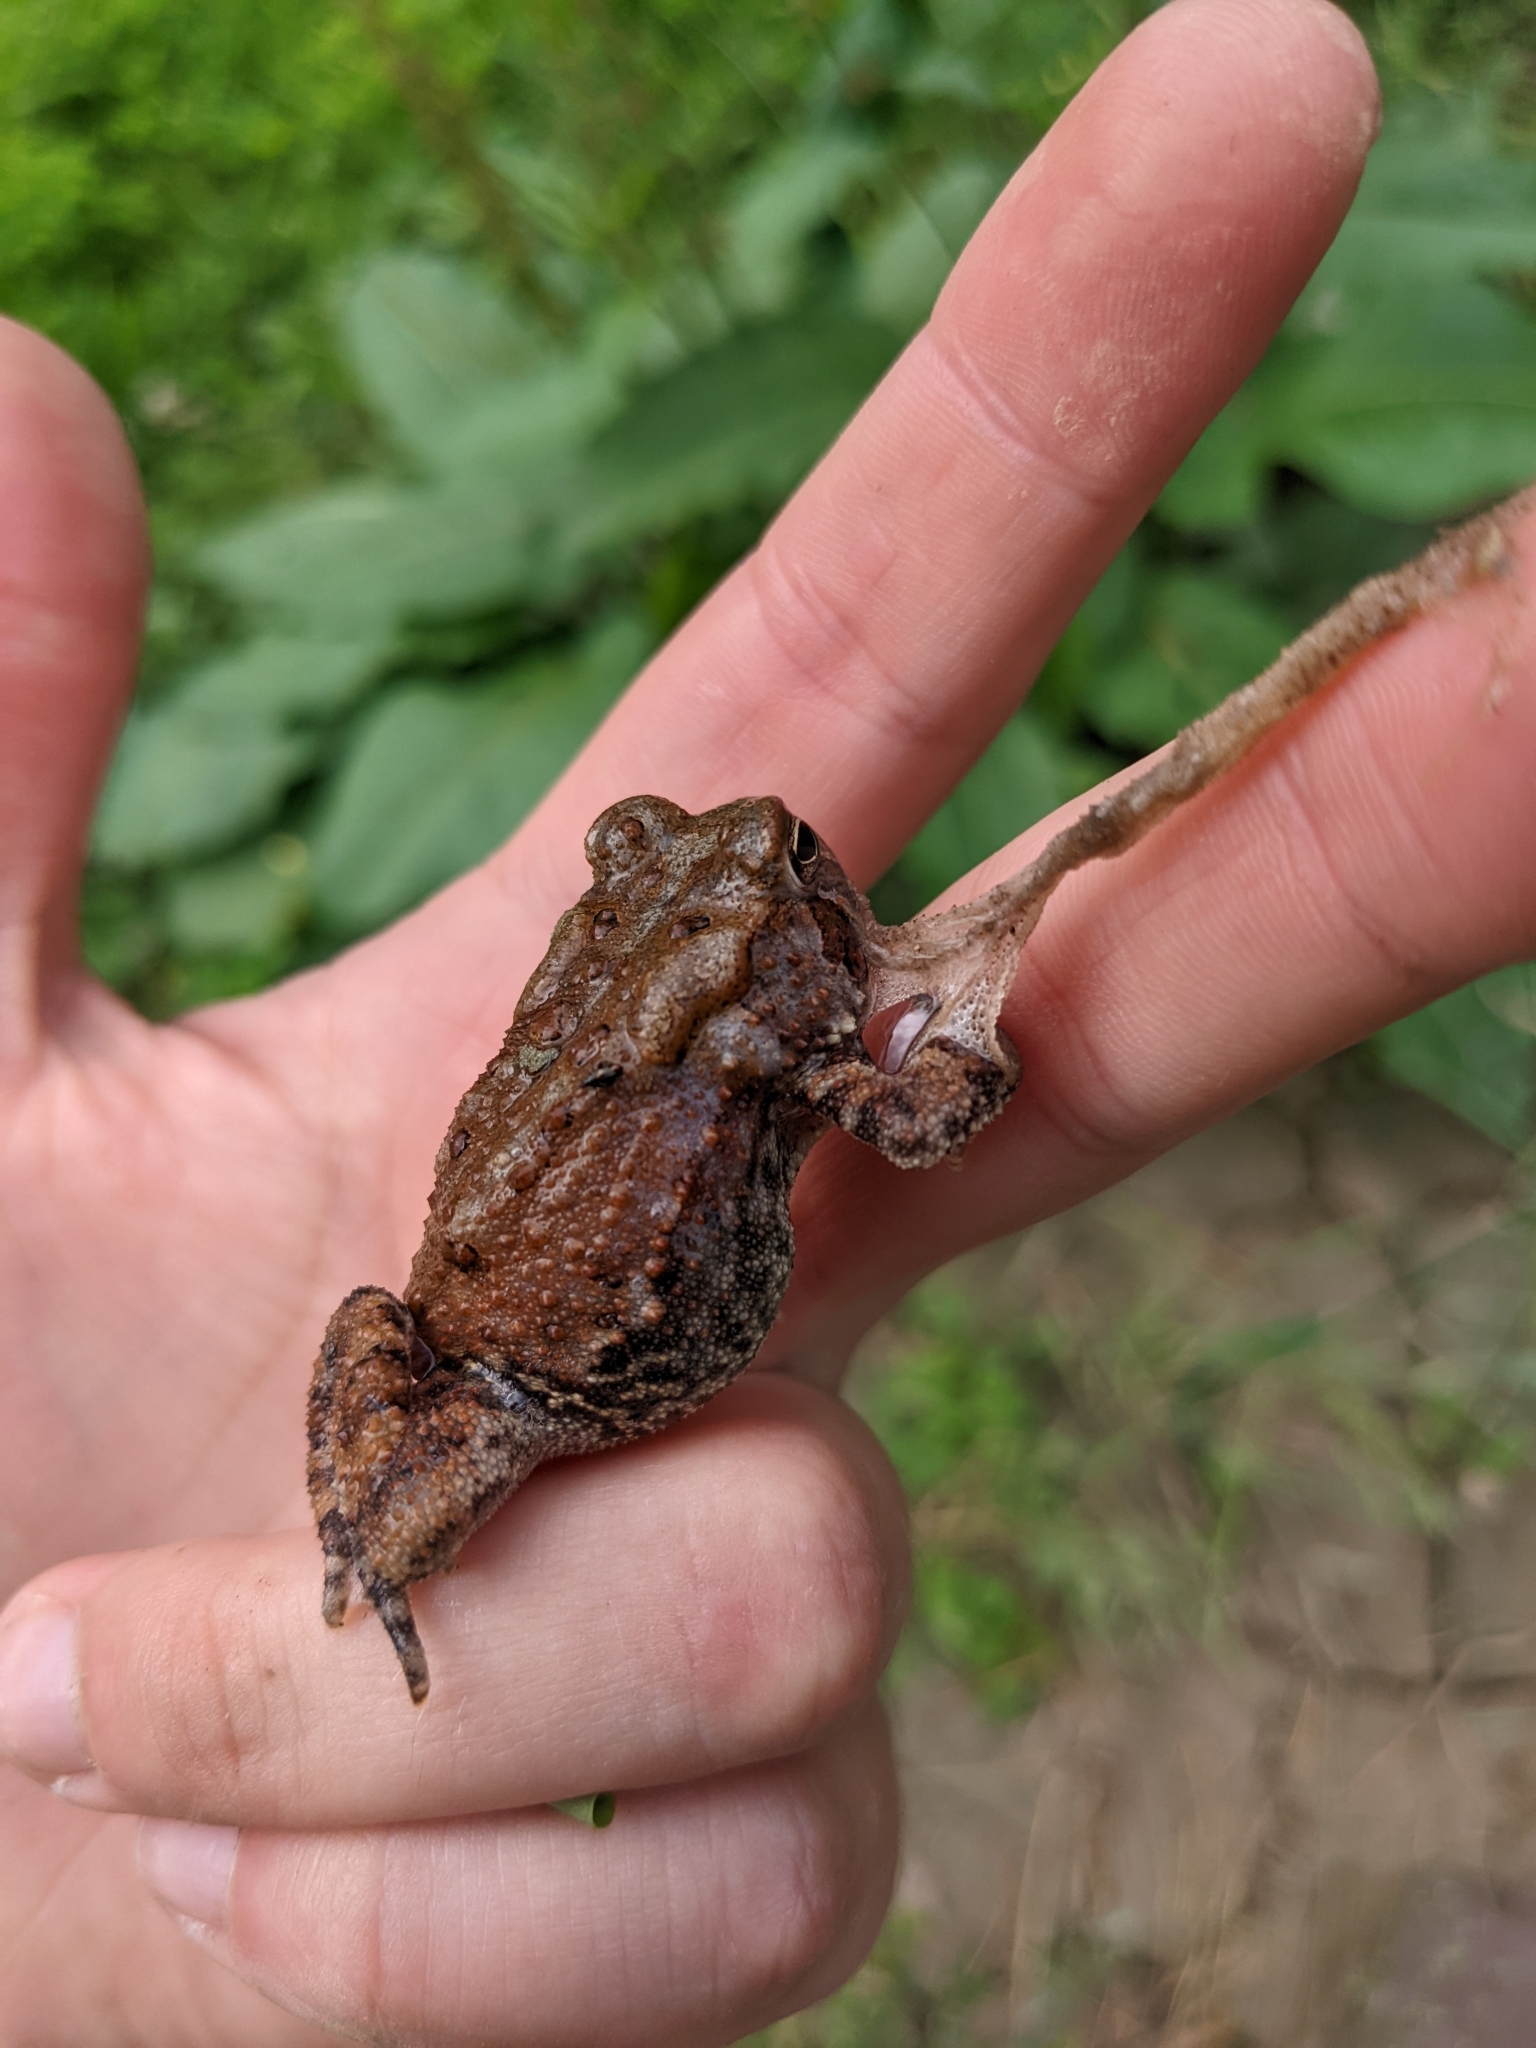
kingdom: Animalia
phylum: Chordata
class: Amphibia
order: Anura
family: Bufonidae
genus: Anaxyrus
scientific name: Anaxyrus americanus
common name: American toad
